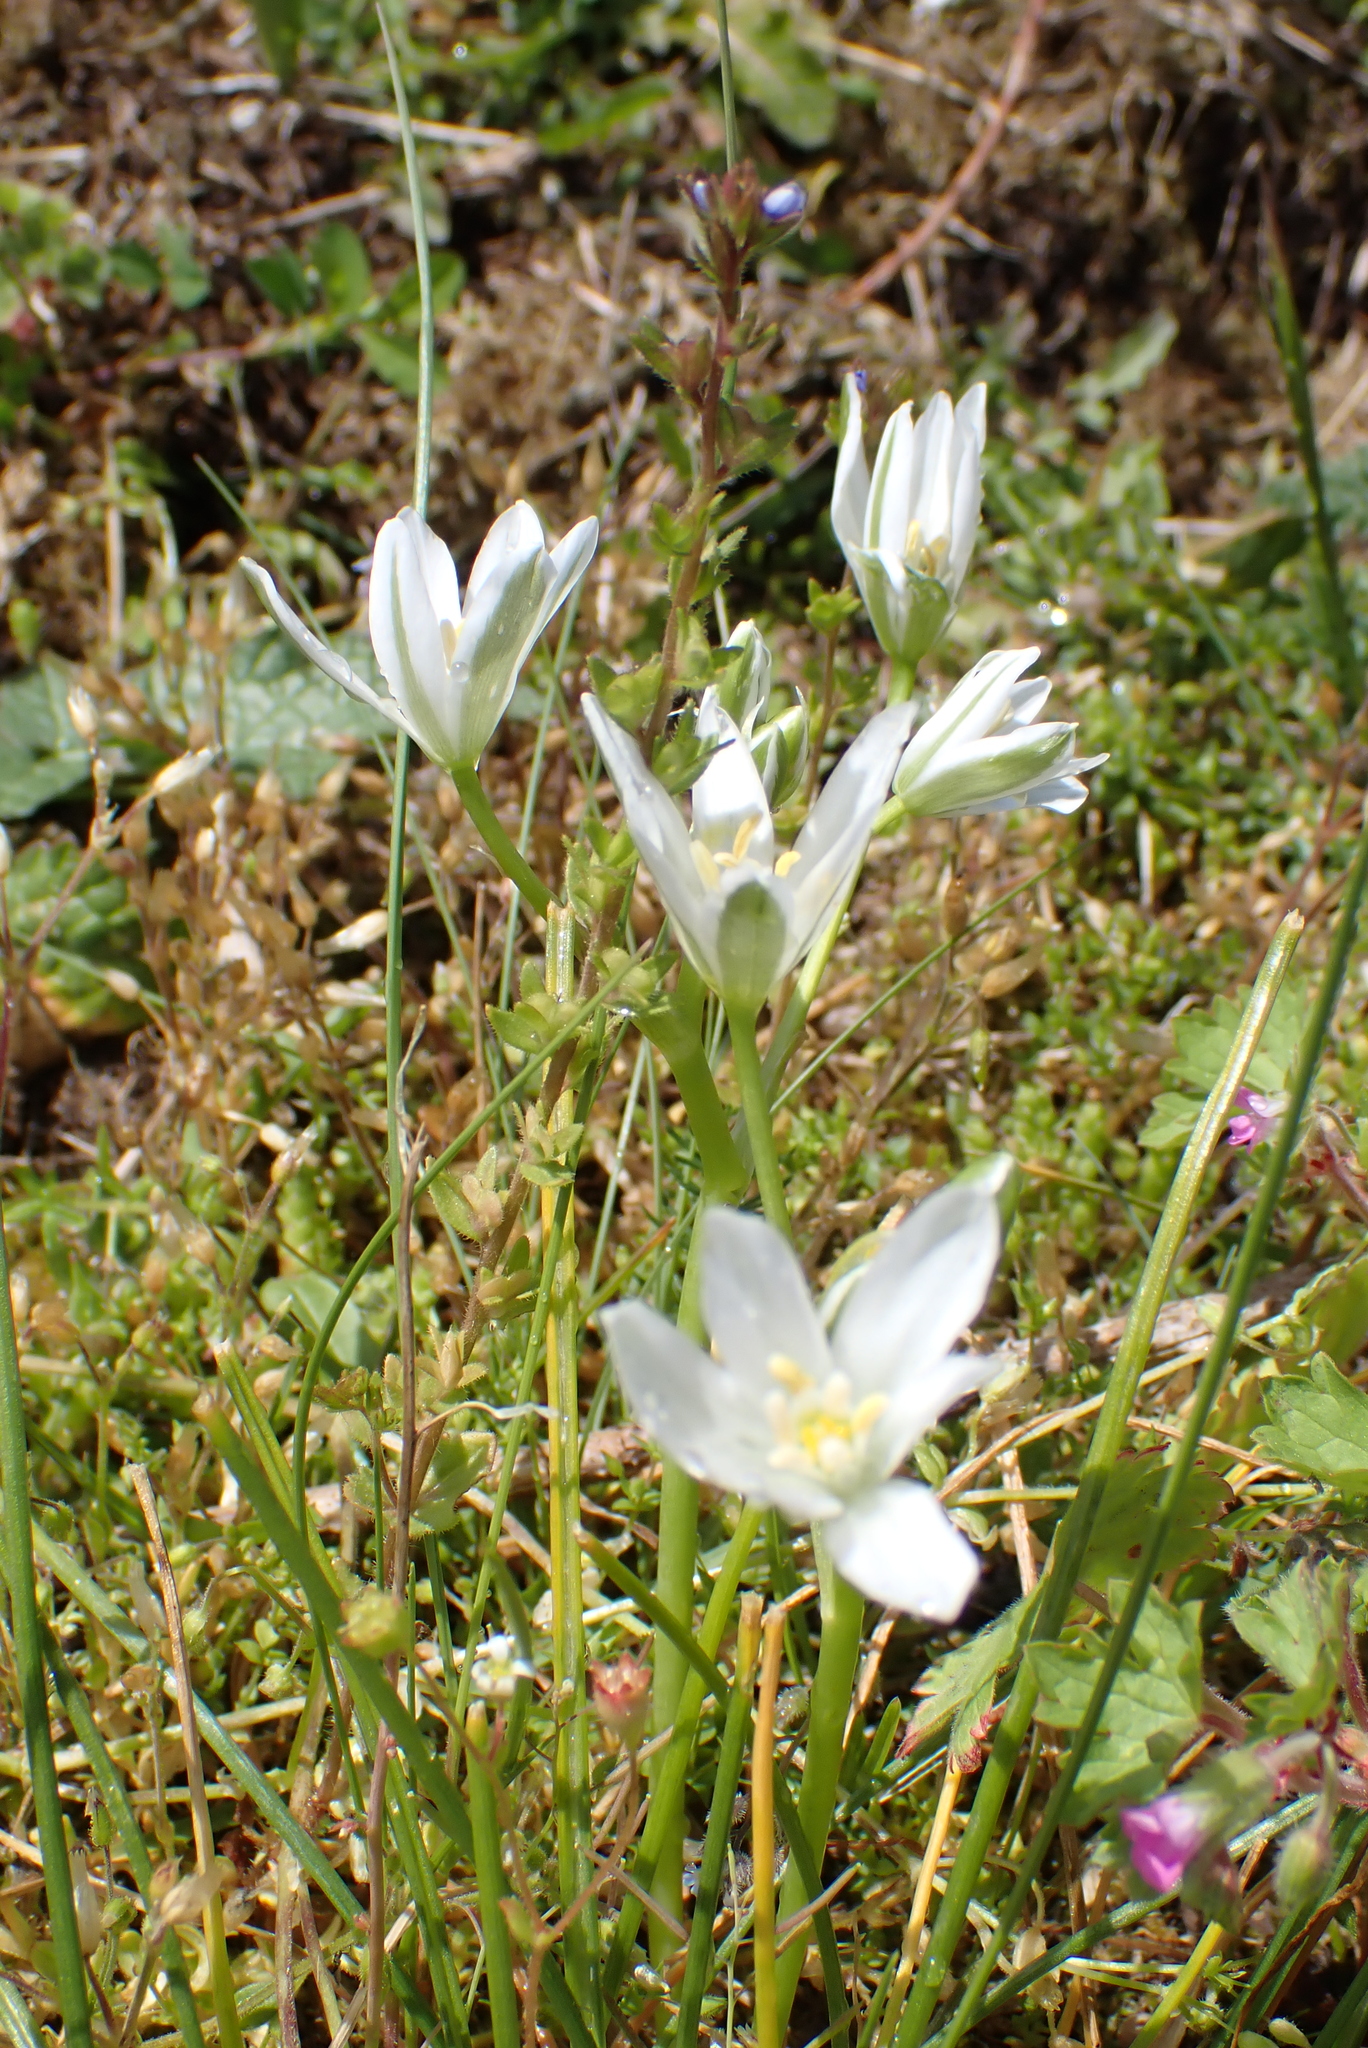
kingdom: Plantae
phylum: Tracheophyta
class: Liliopsida
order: Asparagales
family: Asparagaceae
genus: Ornithogalum
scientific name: Ornithogalum umbellatum
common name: Garden star-of-bethlehem
